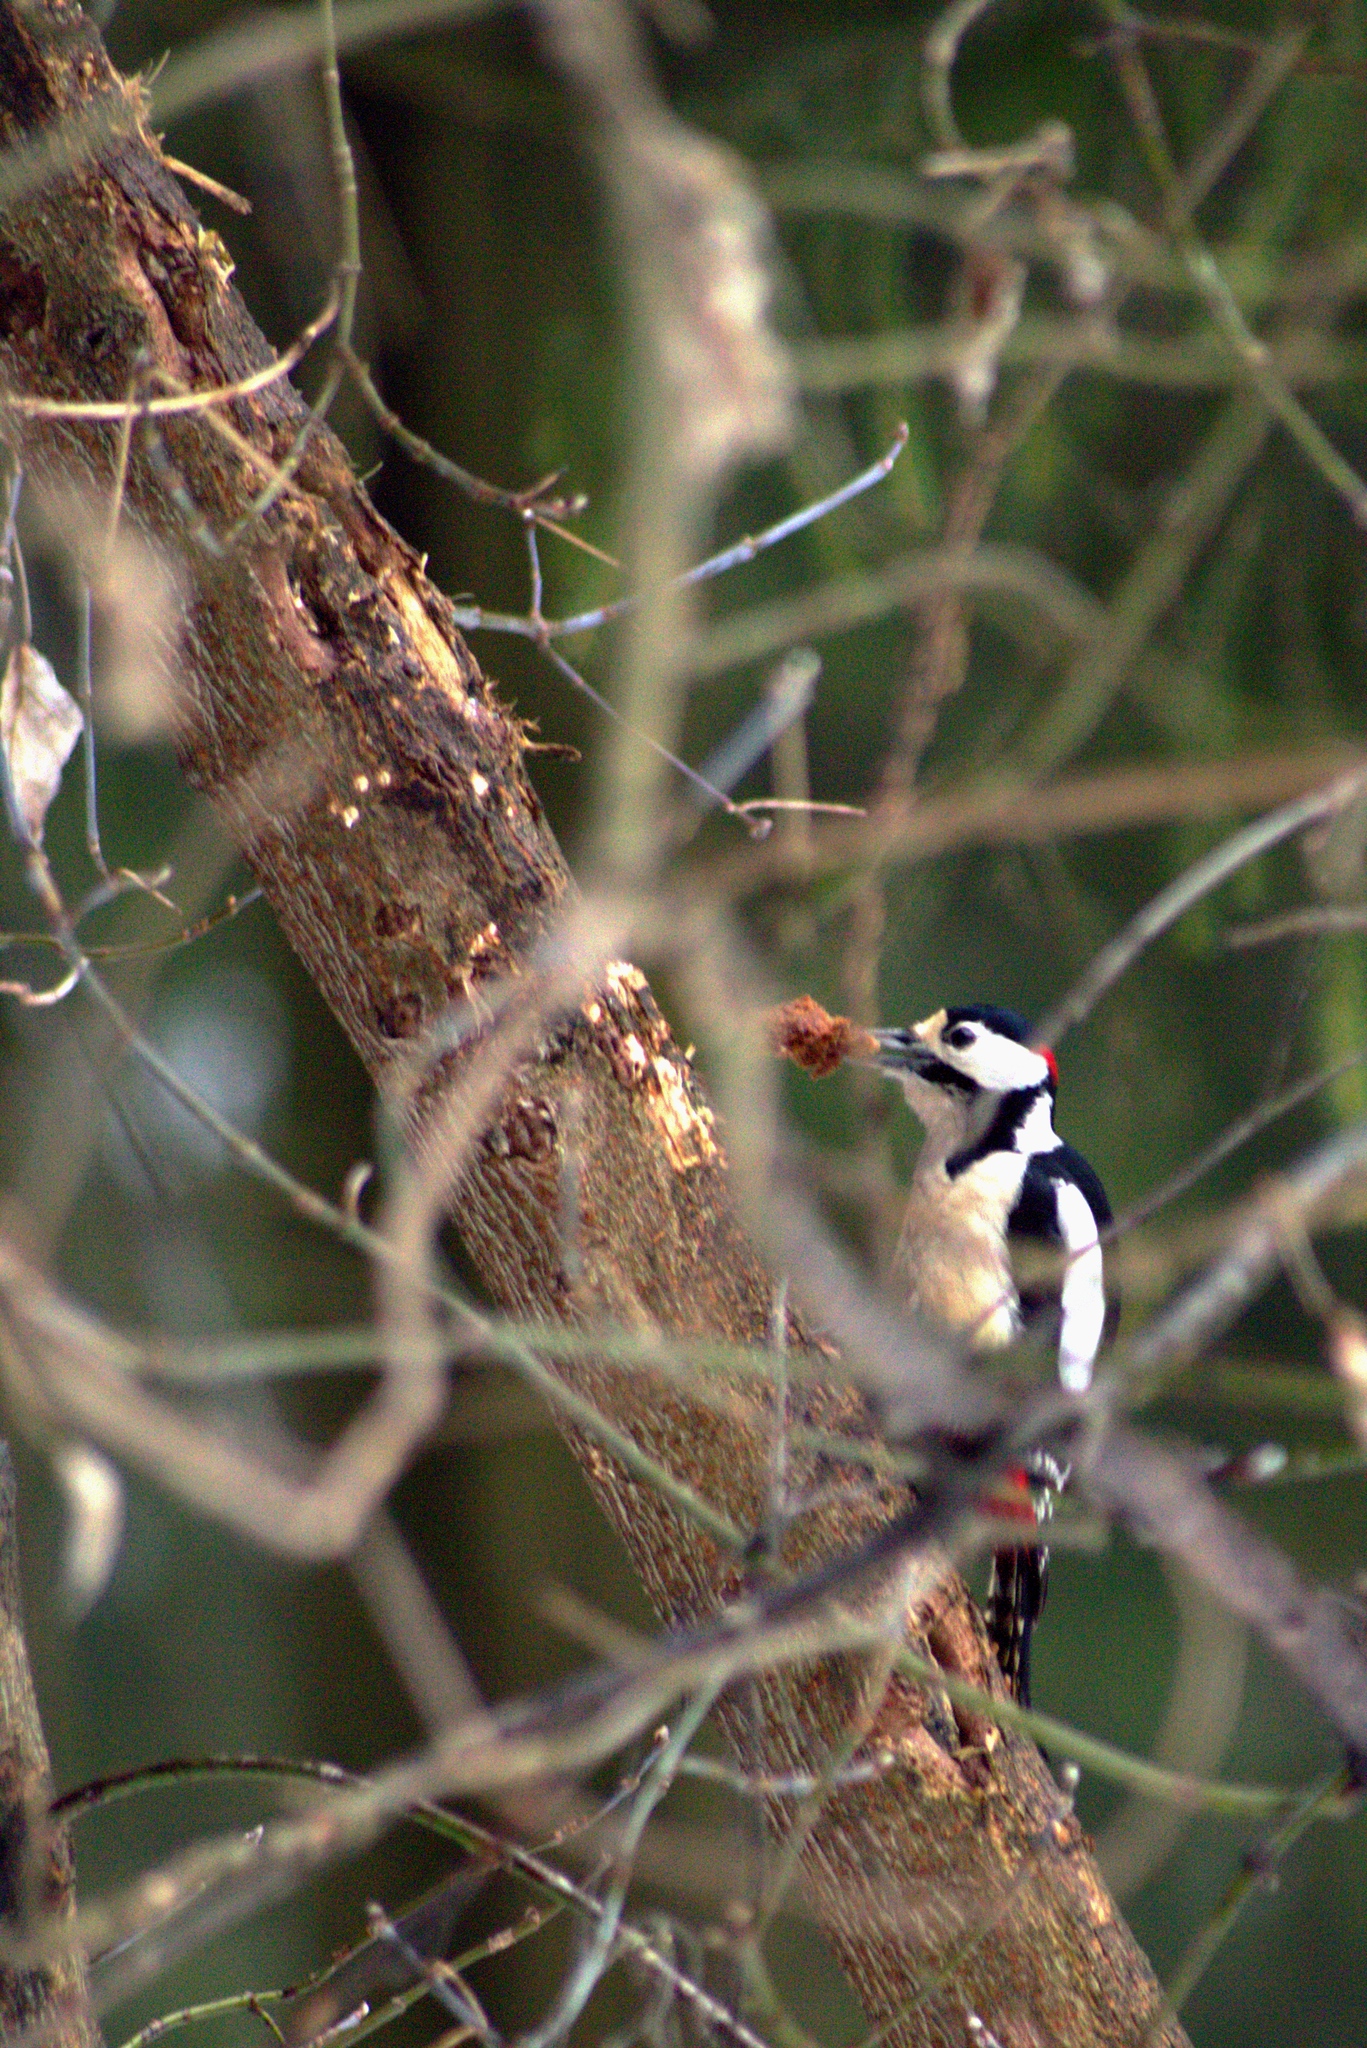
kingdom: Animalia
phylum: Chordata
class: Aves
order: Piciformes
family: Picidae
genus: Dendrocopos
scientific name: Dendrocopos major
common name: Great spotted woodpecker
